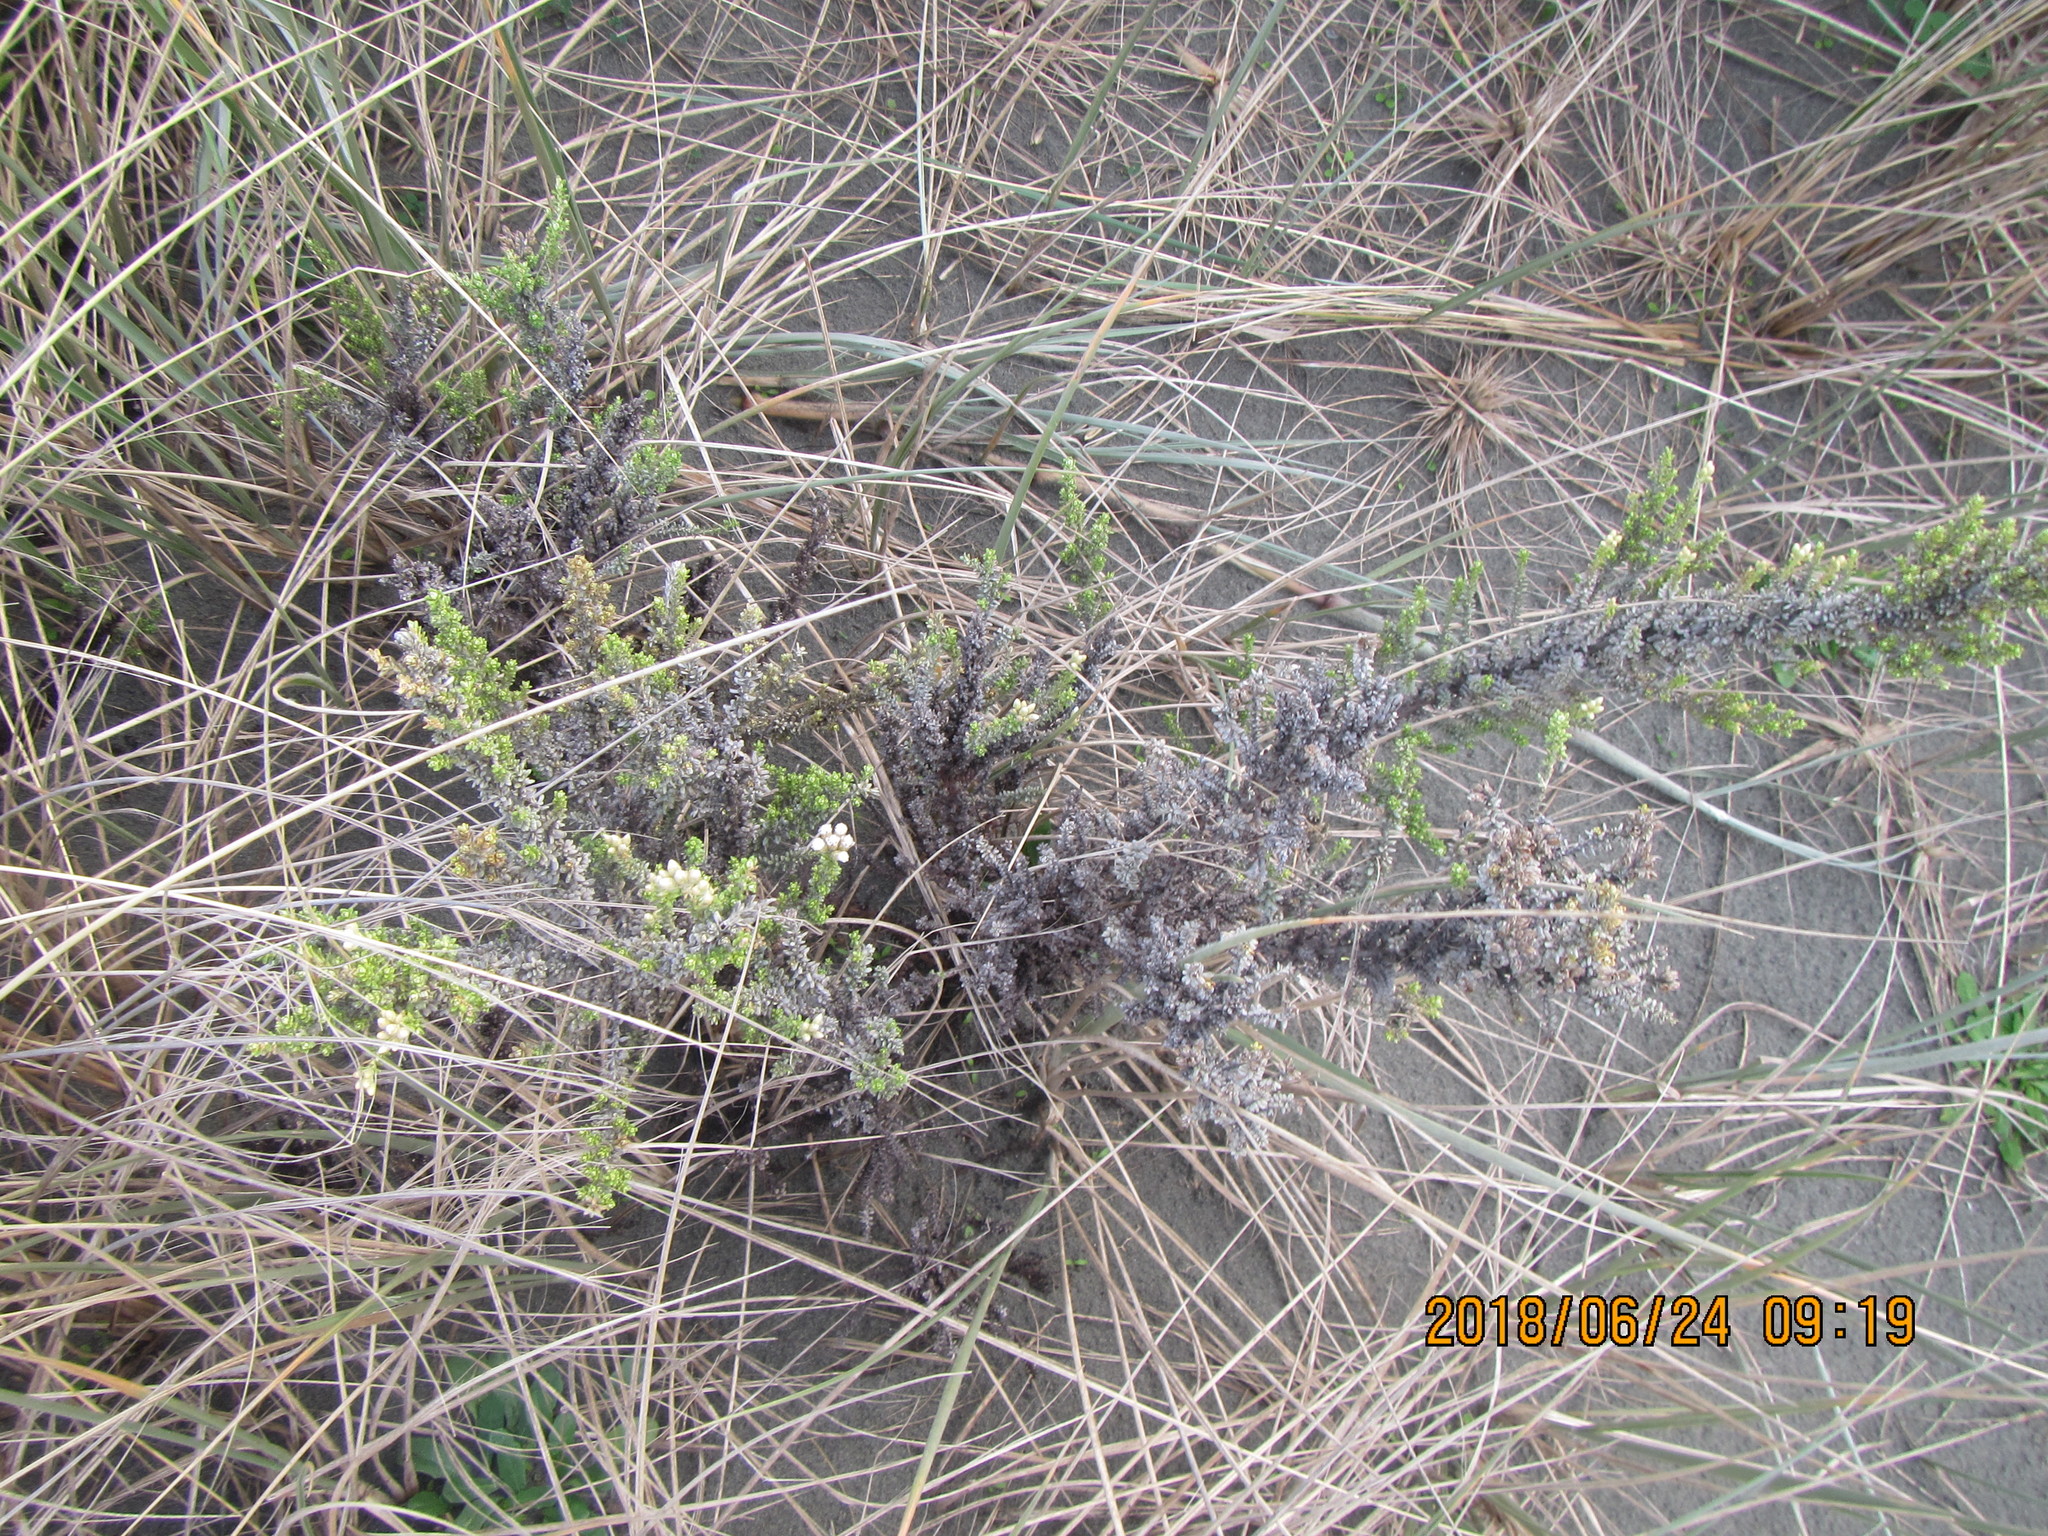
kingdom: Plantae
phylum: Tracheophyta
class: Magnoliopsida
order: Asterales
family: Asteraceae
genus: Ozothamnus
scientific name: Ozothamnus leptophyllus
